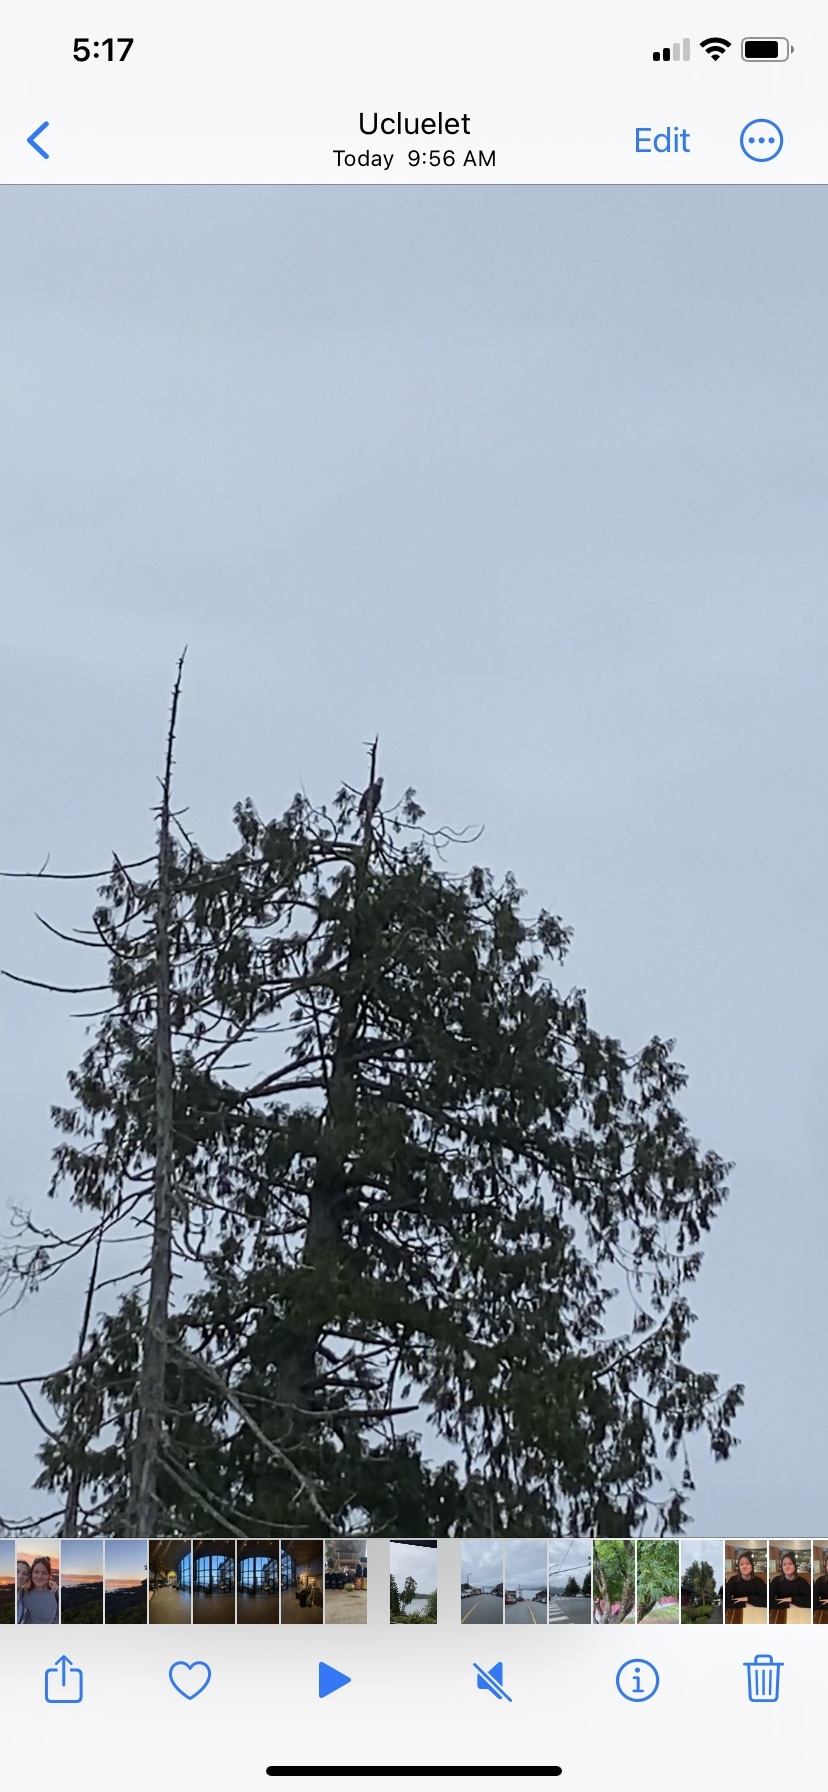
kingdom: Animalia
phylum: Chordata
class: Aves
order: Accipitriformes
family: Accipitridae
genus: Haliaeetus
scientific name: Haliaeetus leucocephalus
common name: Bald eagle
